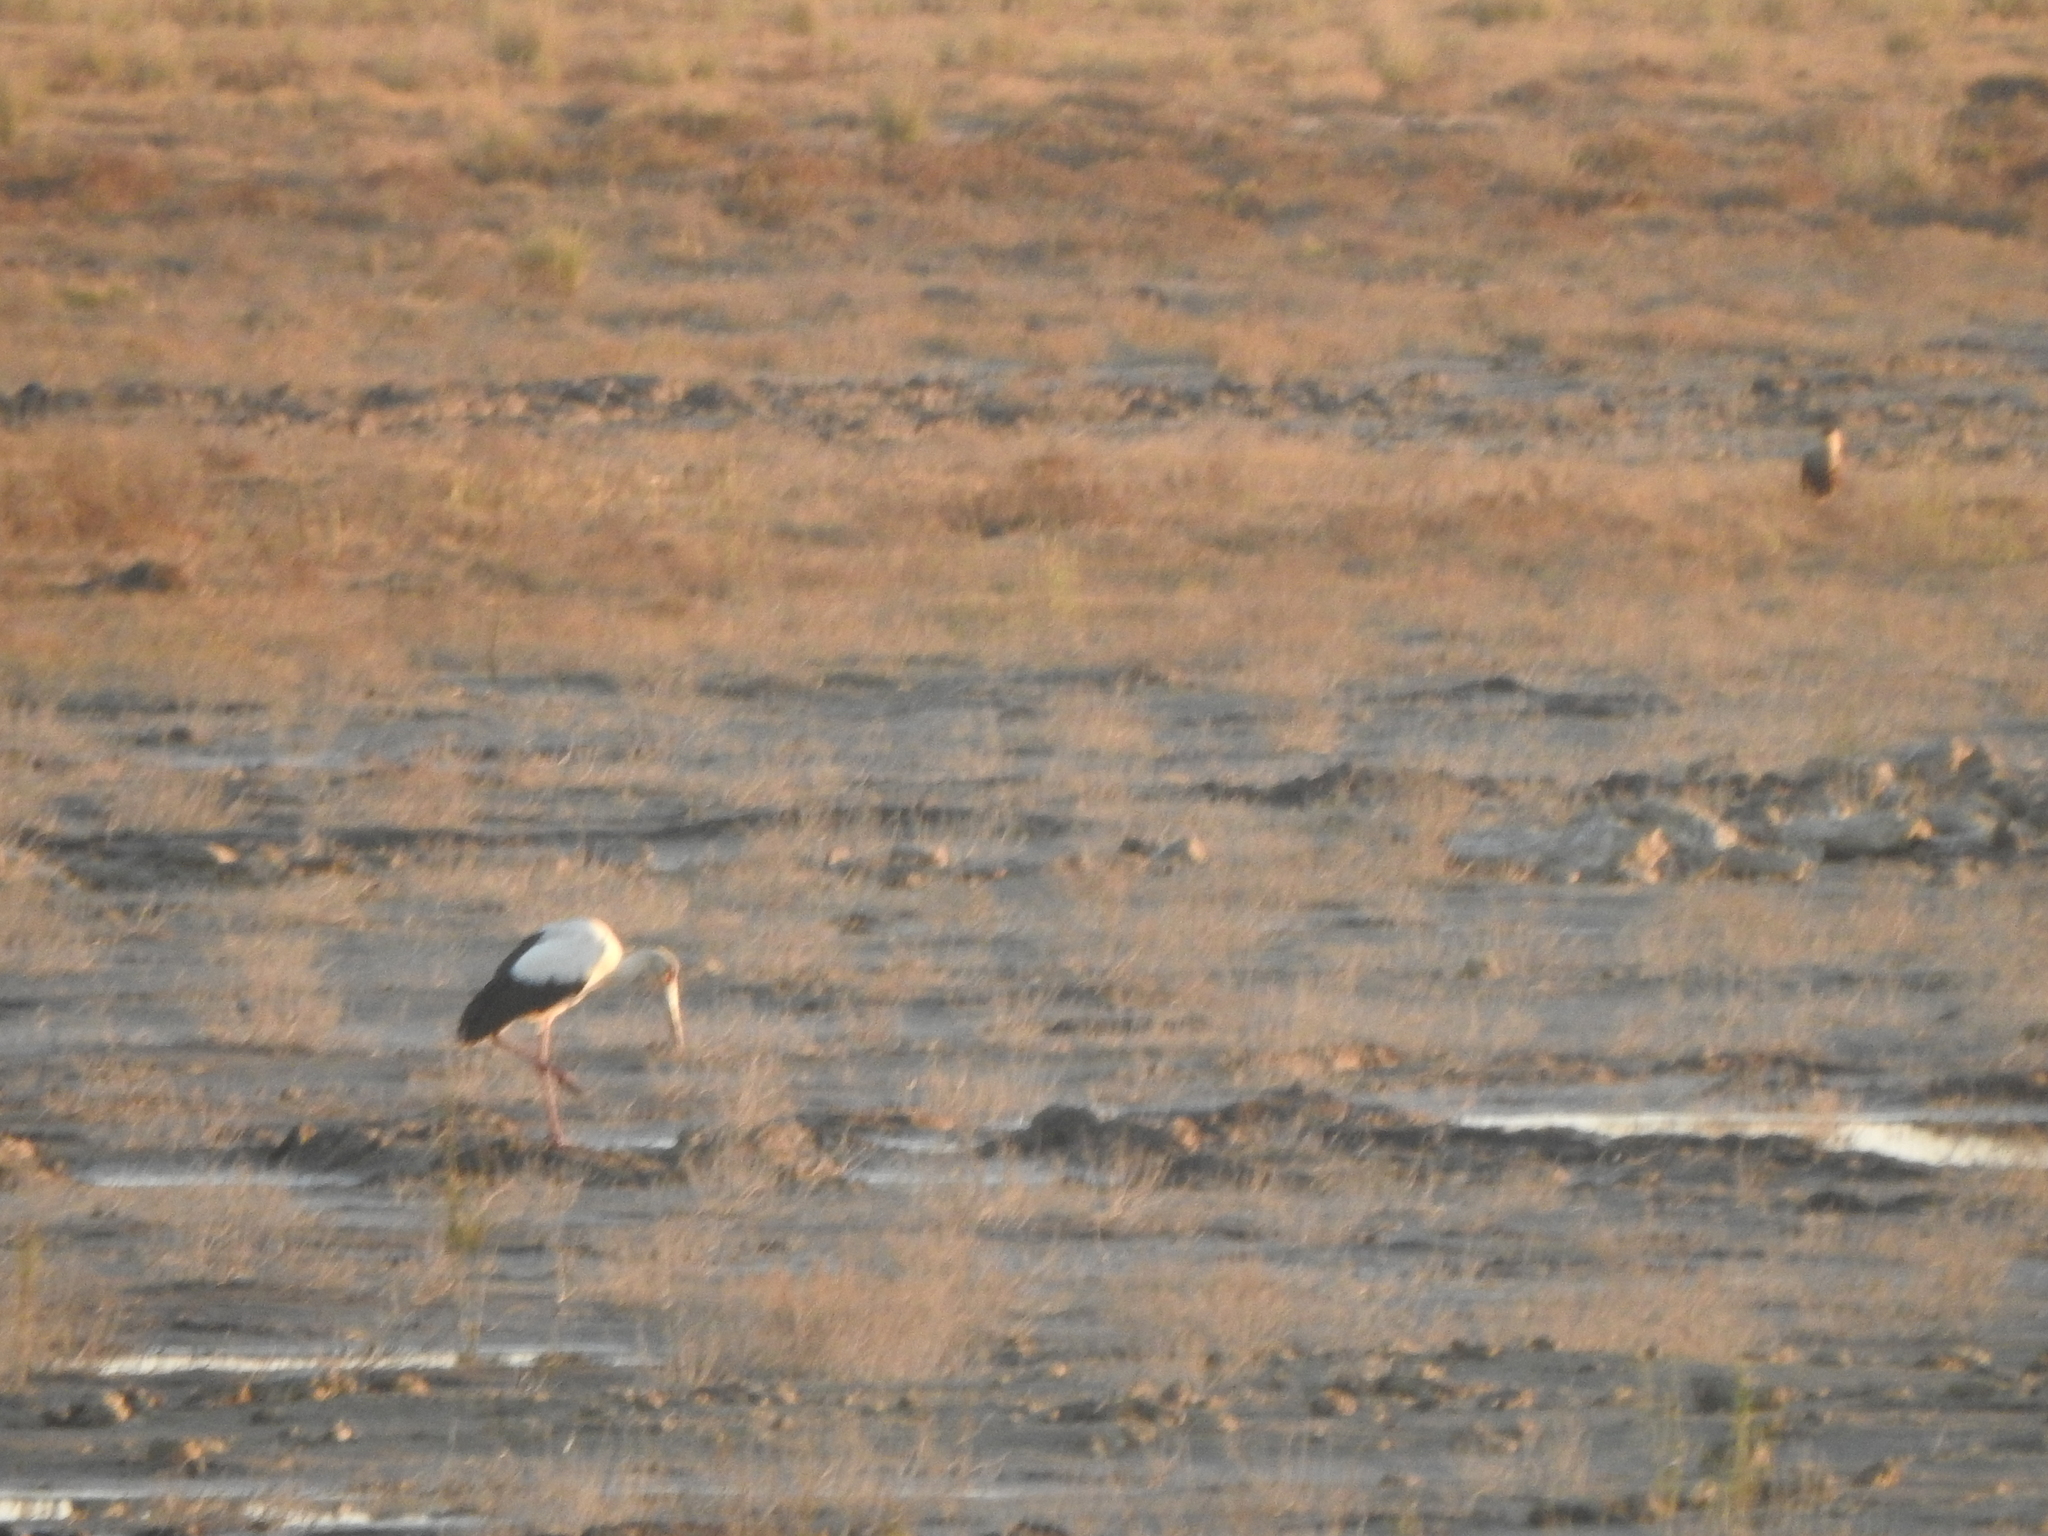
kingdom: Animalia
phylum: Chordata
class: Aves
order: Ciconiiformes
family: Ciconiidae
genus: Ciconia
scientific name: Ciconia maguari
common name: Maguari stork
